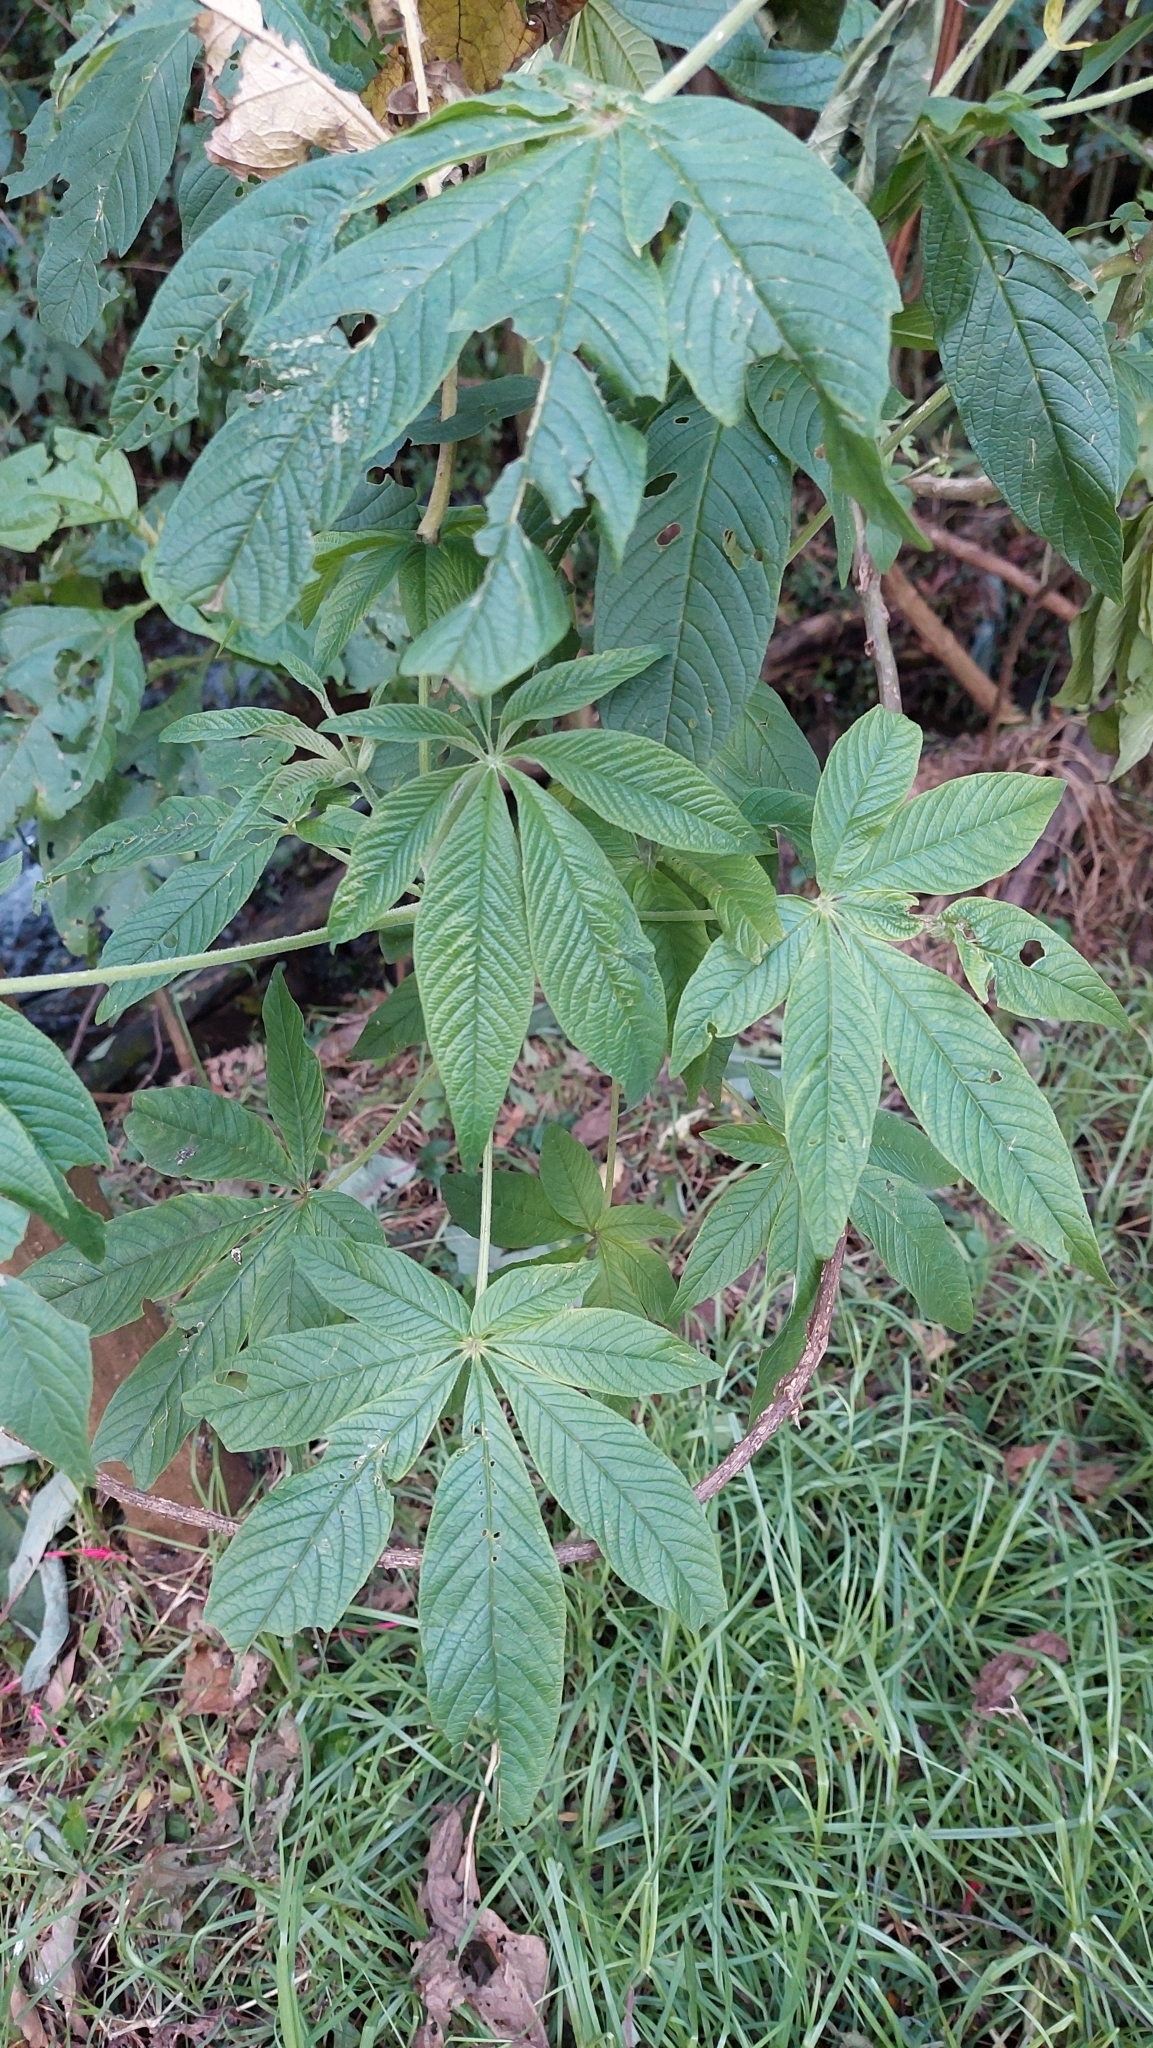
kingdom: Plantae
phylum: Tracheophyta
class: Magnoliopsida
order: Brassicales
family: Cleomaceae
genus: Andinocleome
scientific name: Andinocleome anomala
